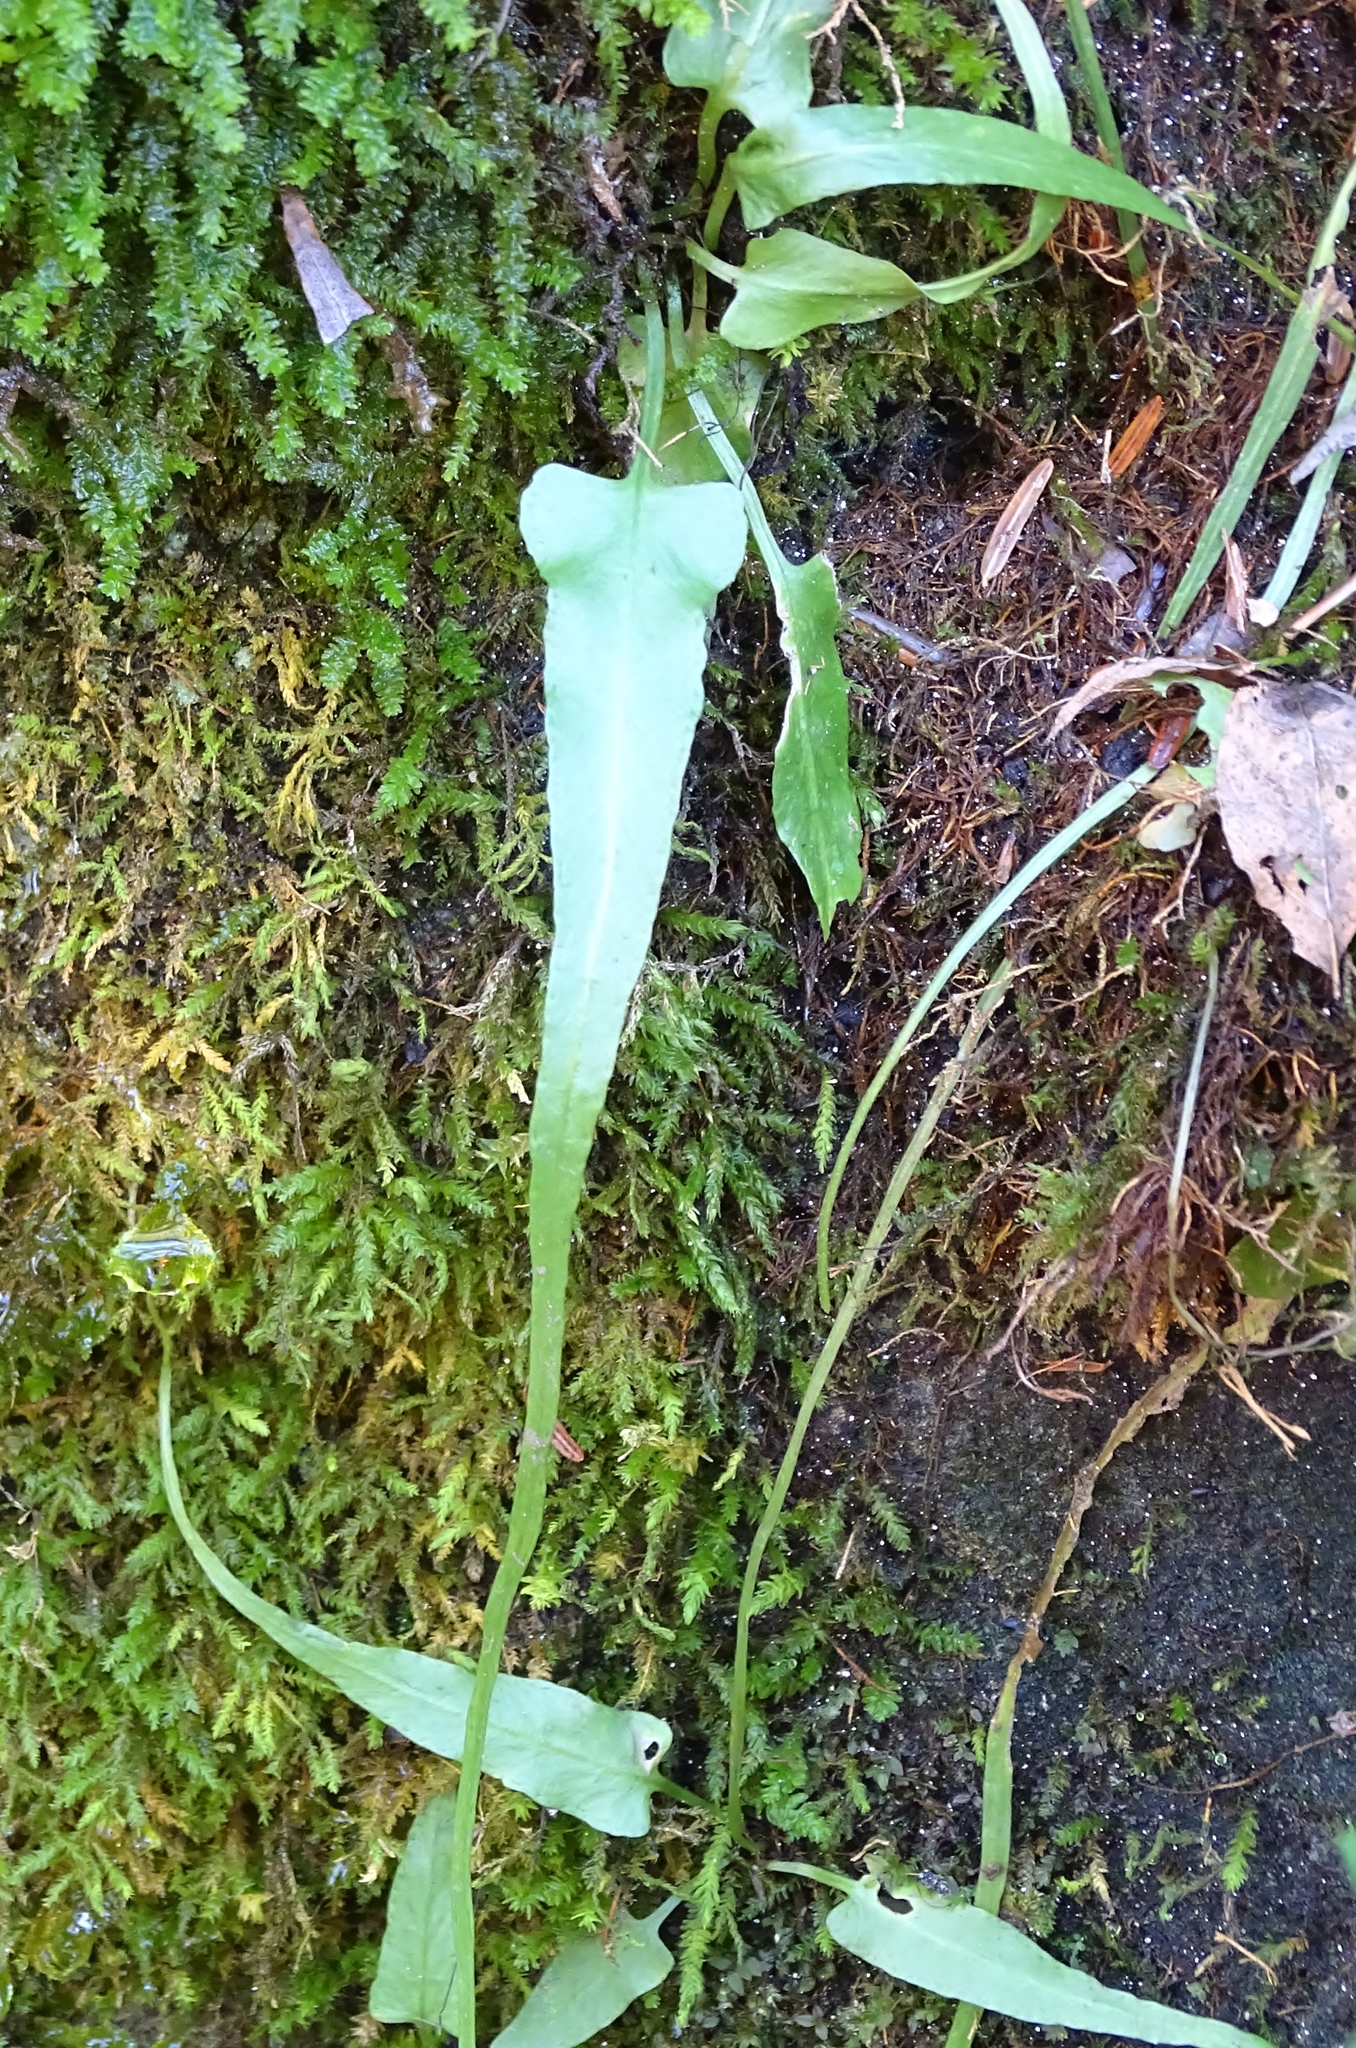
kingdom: Plantae
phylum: Tracheophyta
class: Polypodiopsida
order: Polypodiales
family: Aspleniaceae
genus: Asplenium
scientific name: Asplenium rhizophyllum
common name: Walking fern
